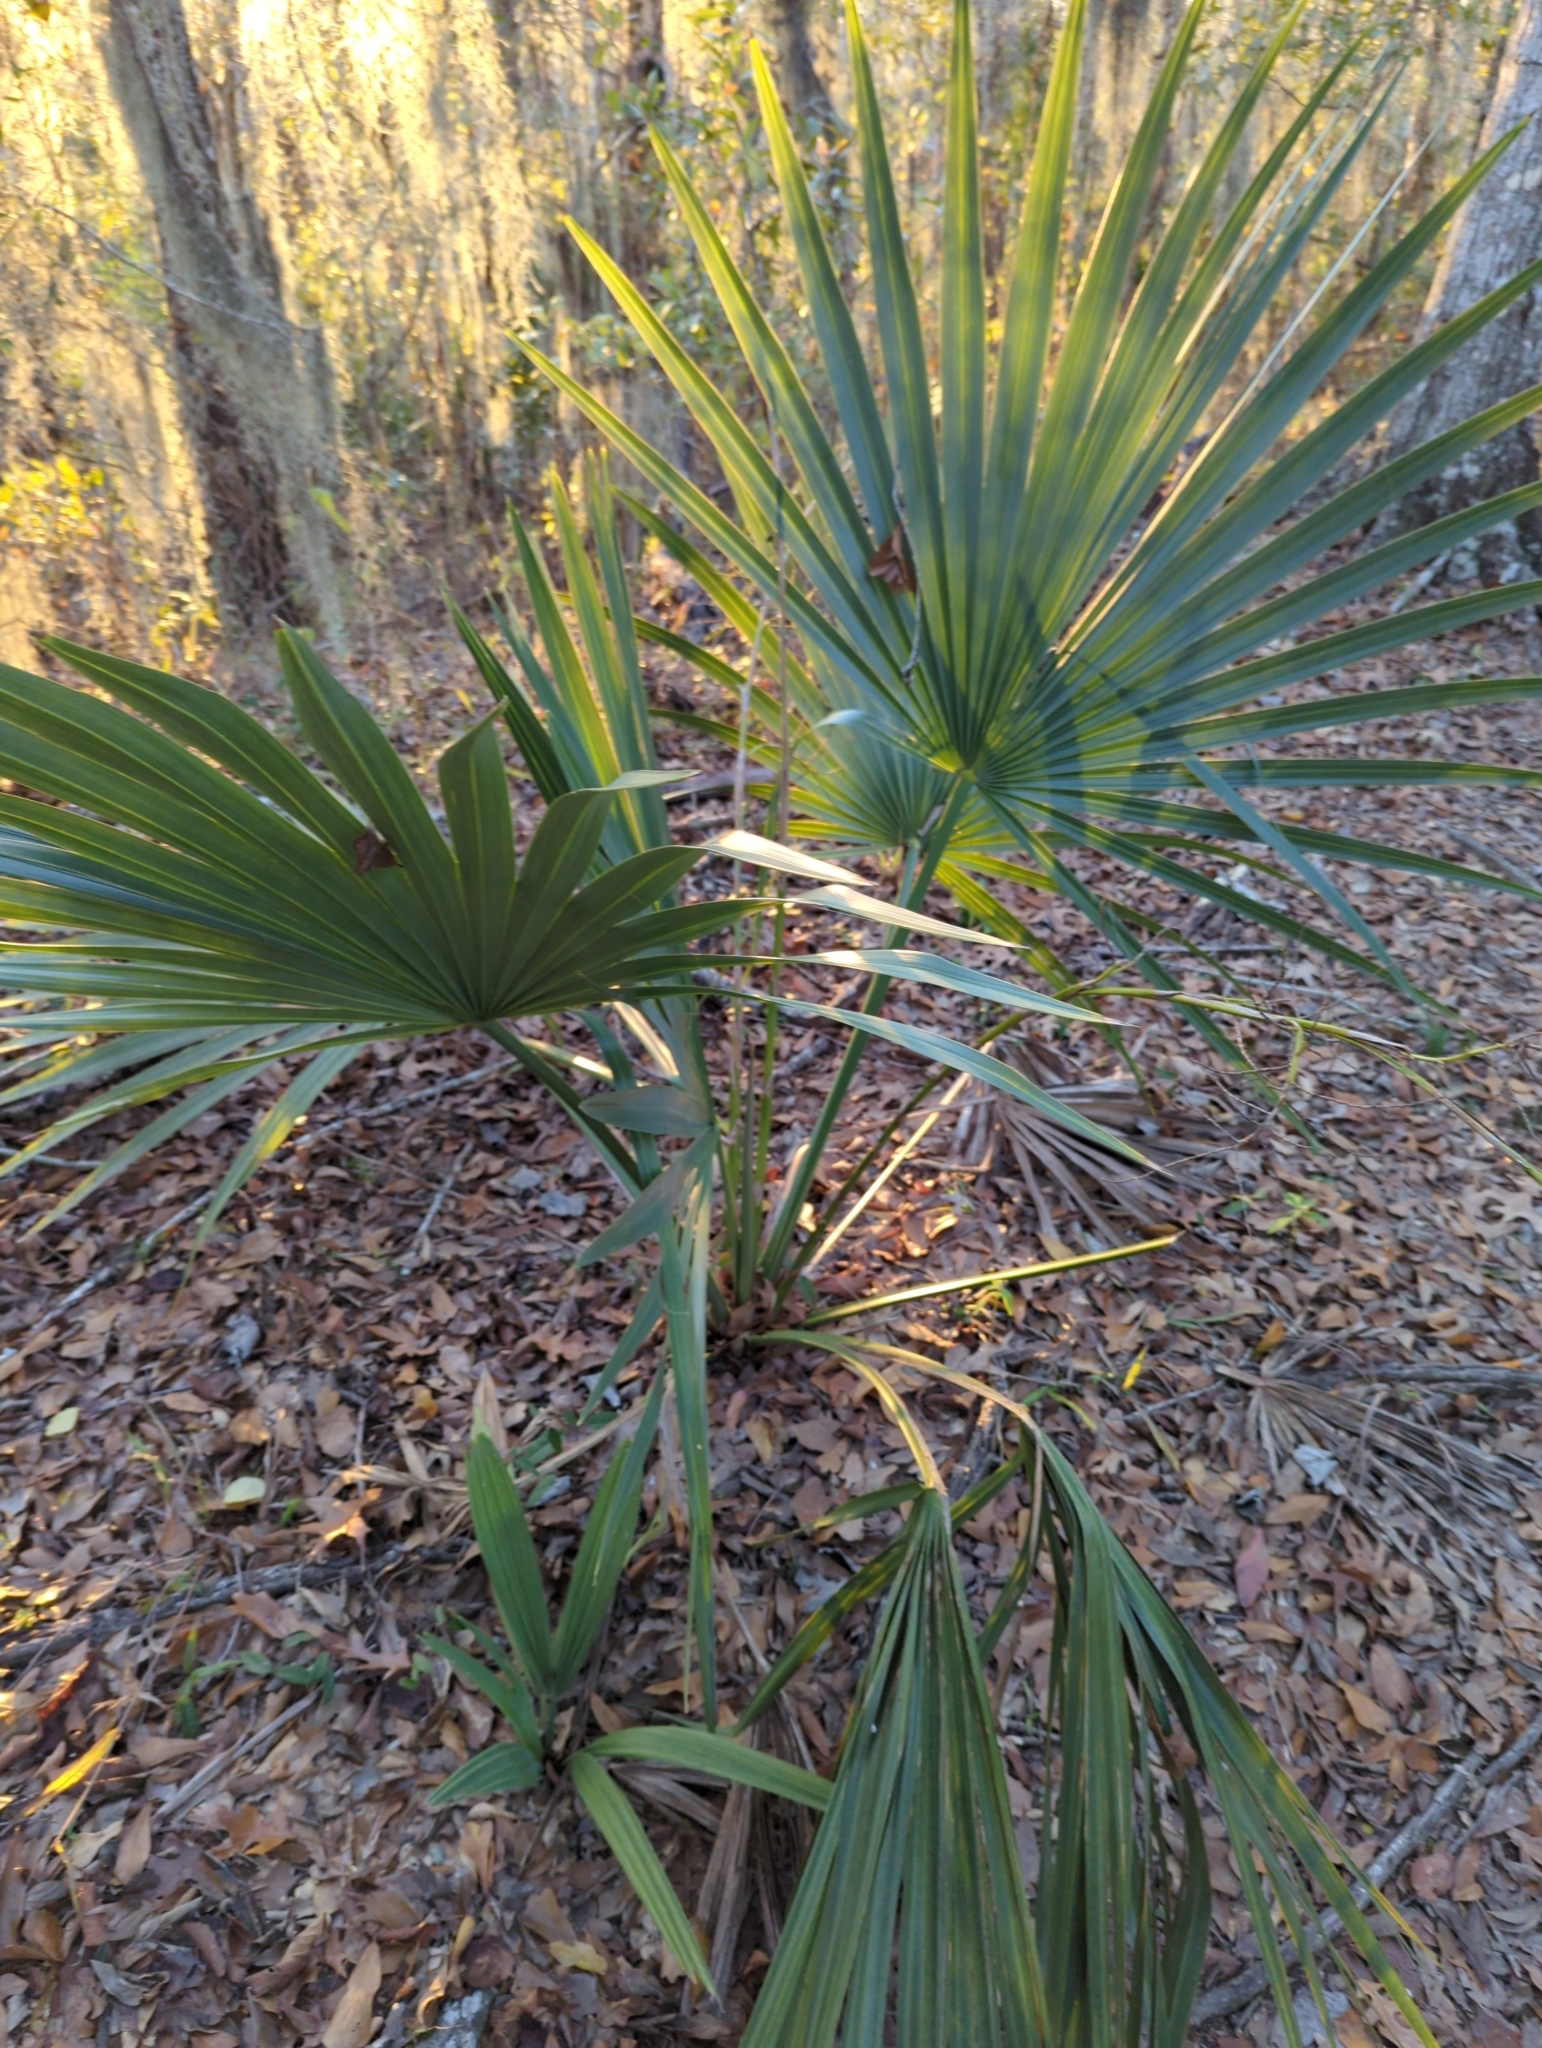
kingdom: Plantae
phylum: Tracheophyta
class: Liliopsida
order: Arecales
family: Arecaceae
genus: Sabal
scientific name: Sabal minor
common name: Dwarf palmetto
